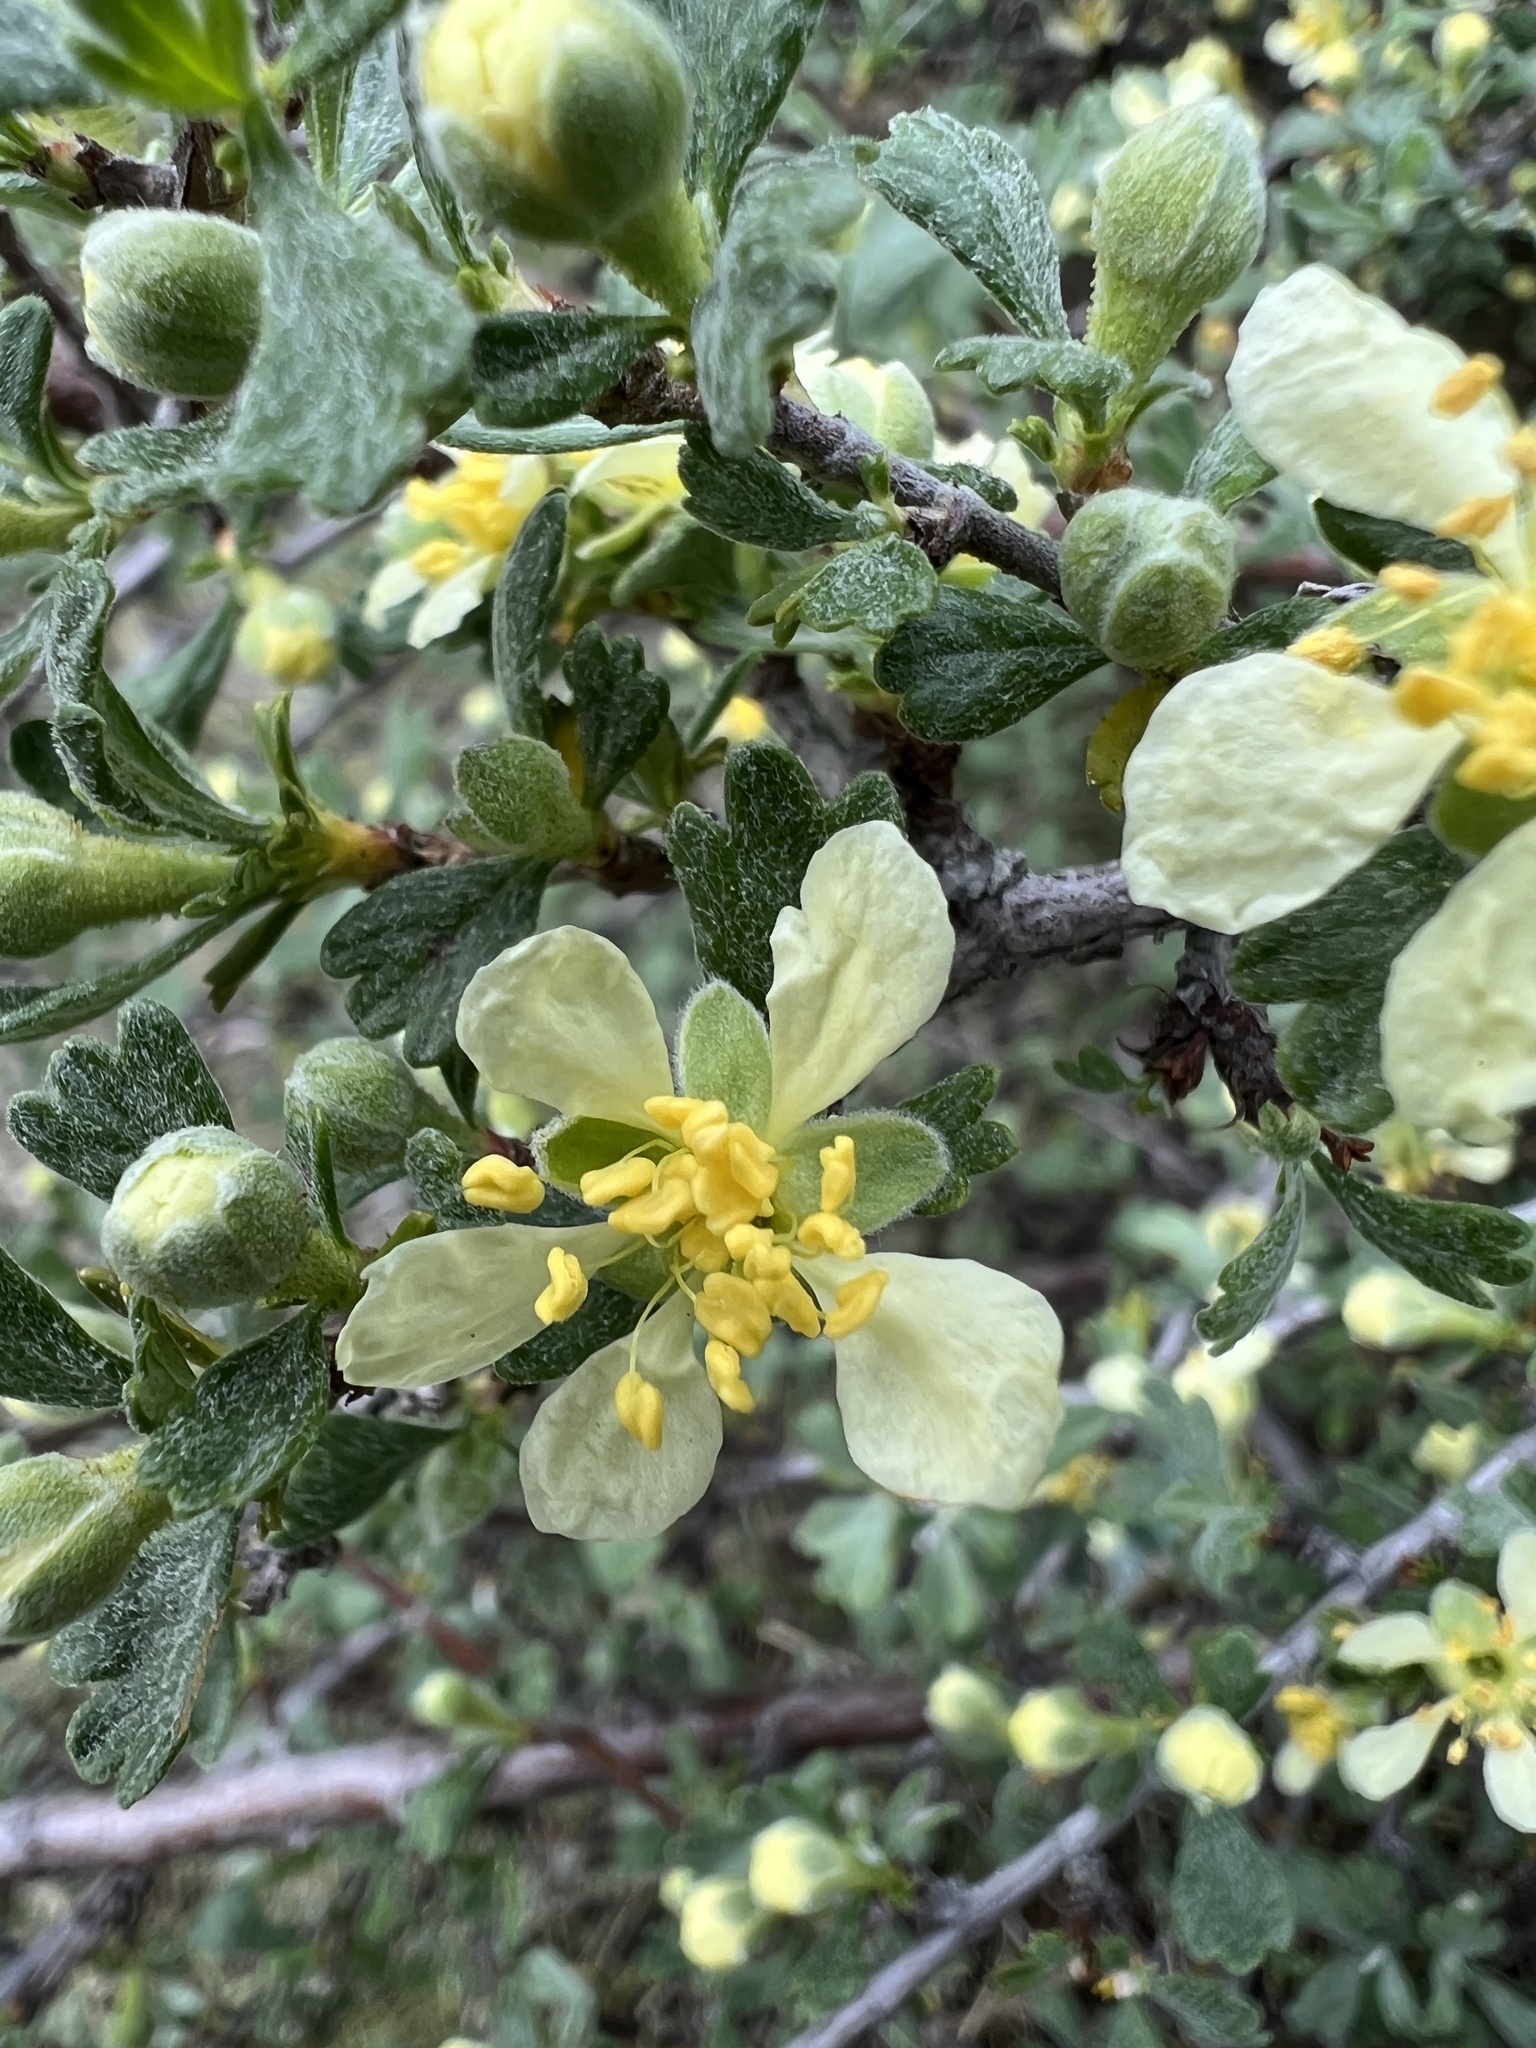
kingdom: Plantae
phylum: Tracheophyta
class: Magnoliopsida
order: Rosales
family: Rosaceae
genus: Purshia
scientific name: Purshia tridentata
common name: Antelope bitterbrush
